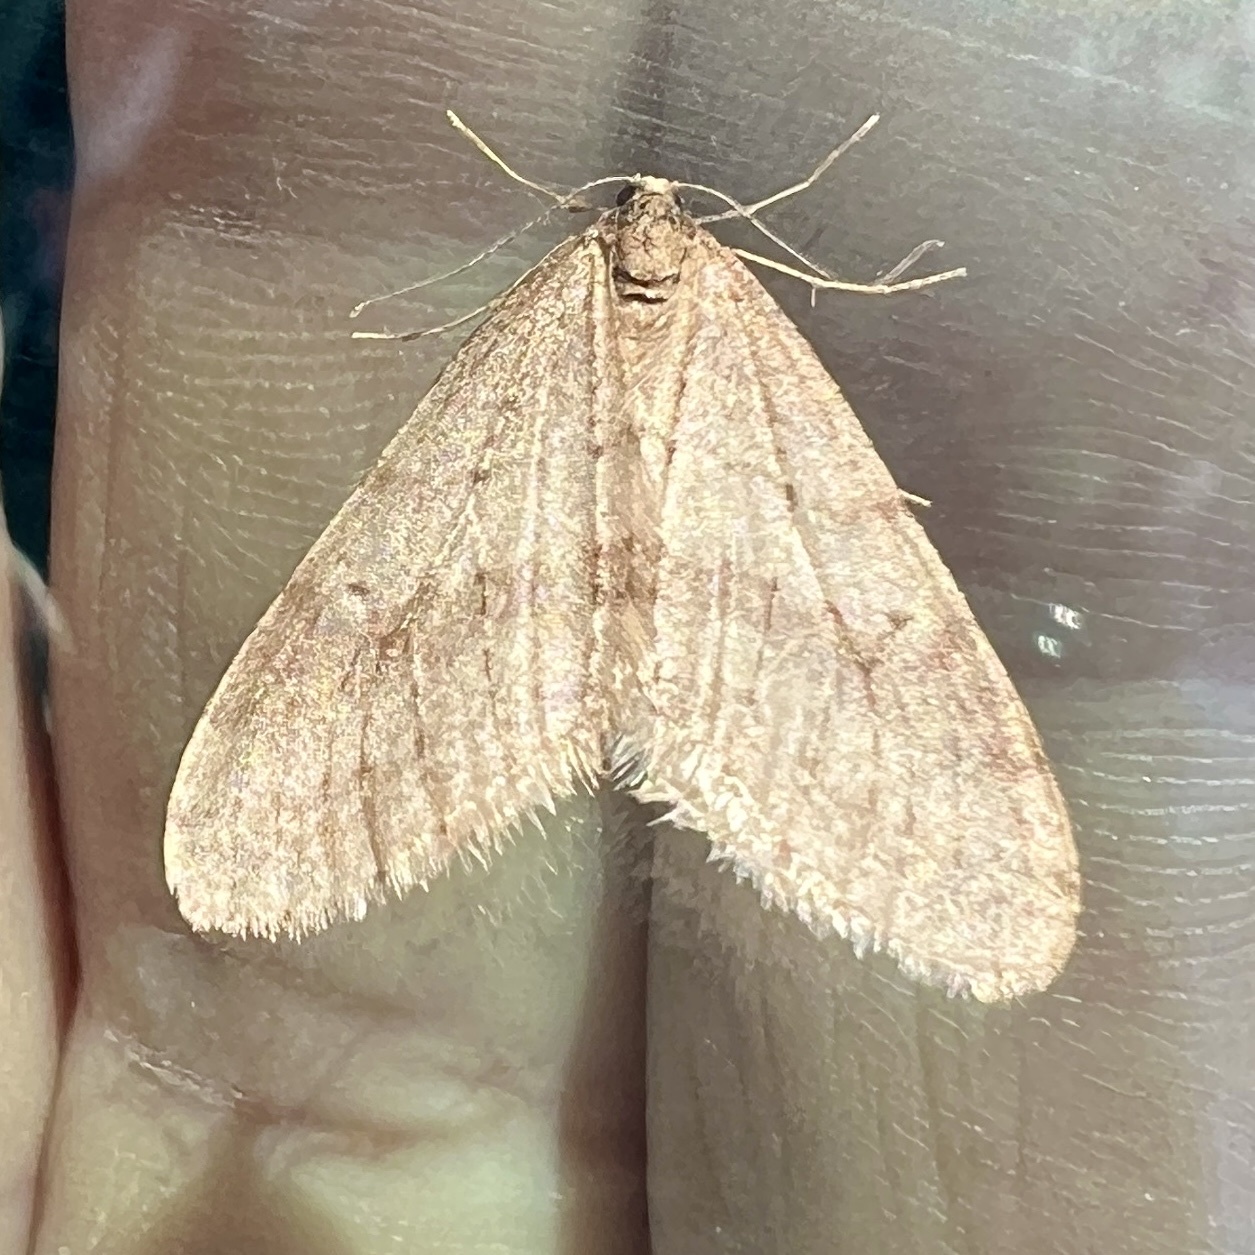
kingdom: Animalia
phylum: Arthropoda
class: Insecta
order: Lepidoptera
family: Geometridae
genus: Operophtera
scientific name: Operophtera bruceata
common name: Bruce spanworm
